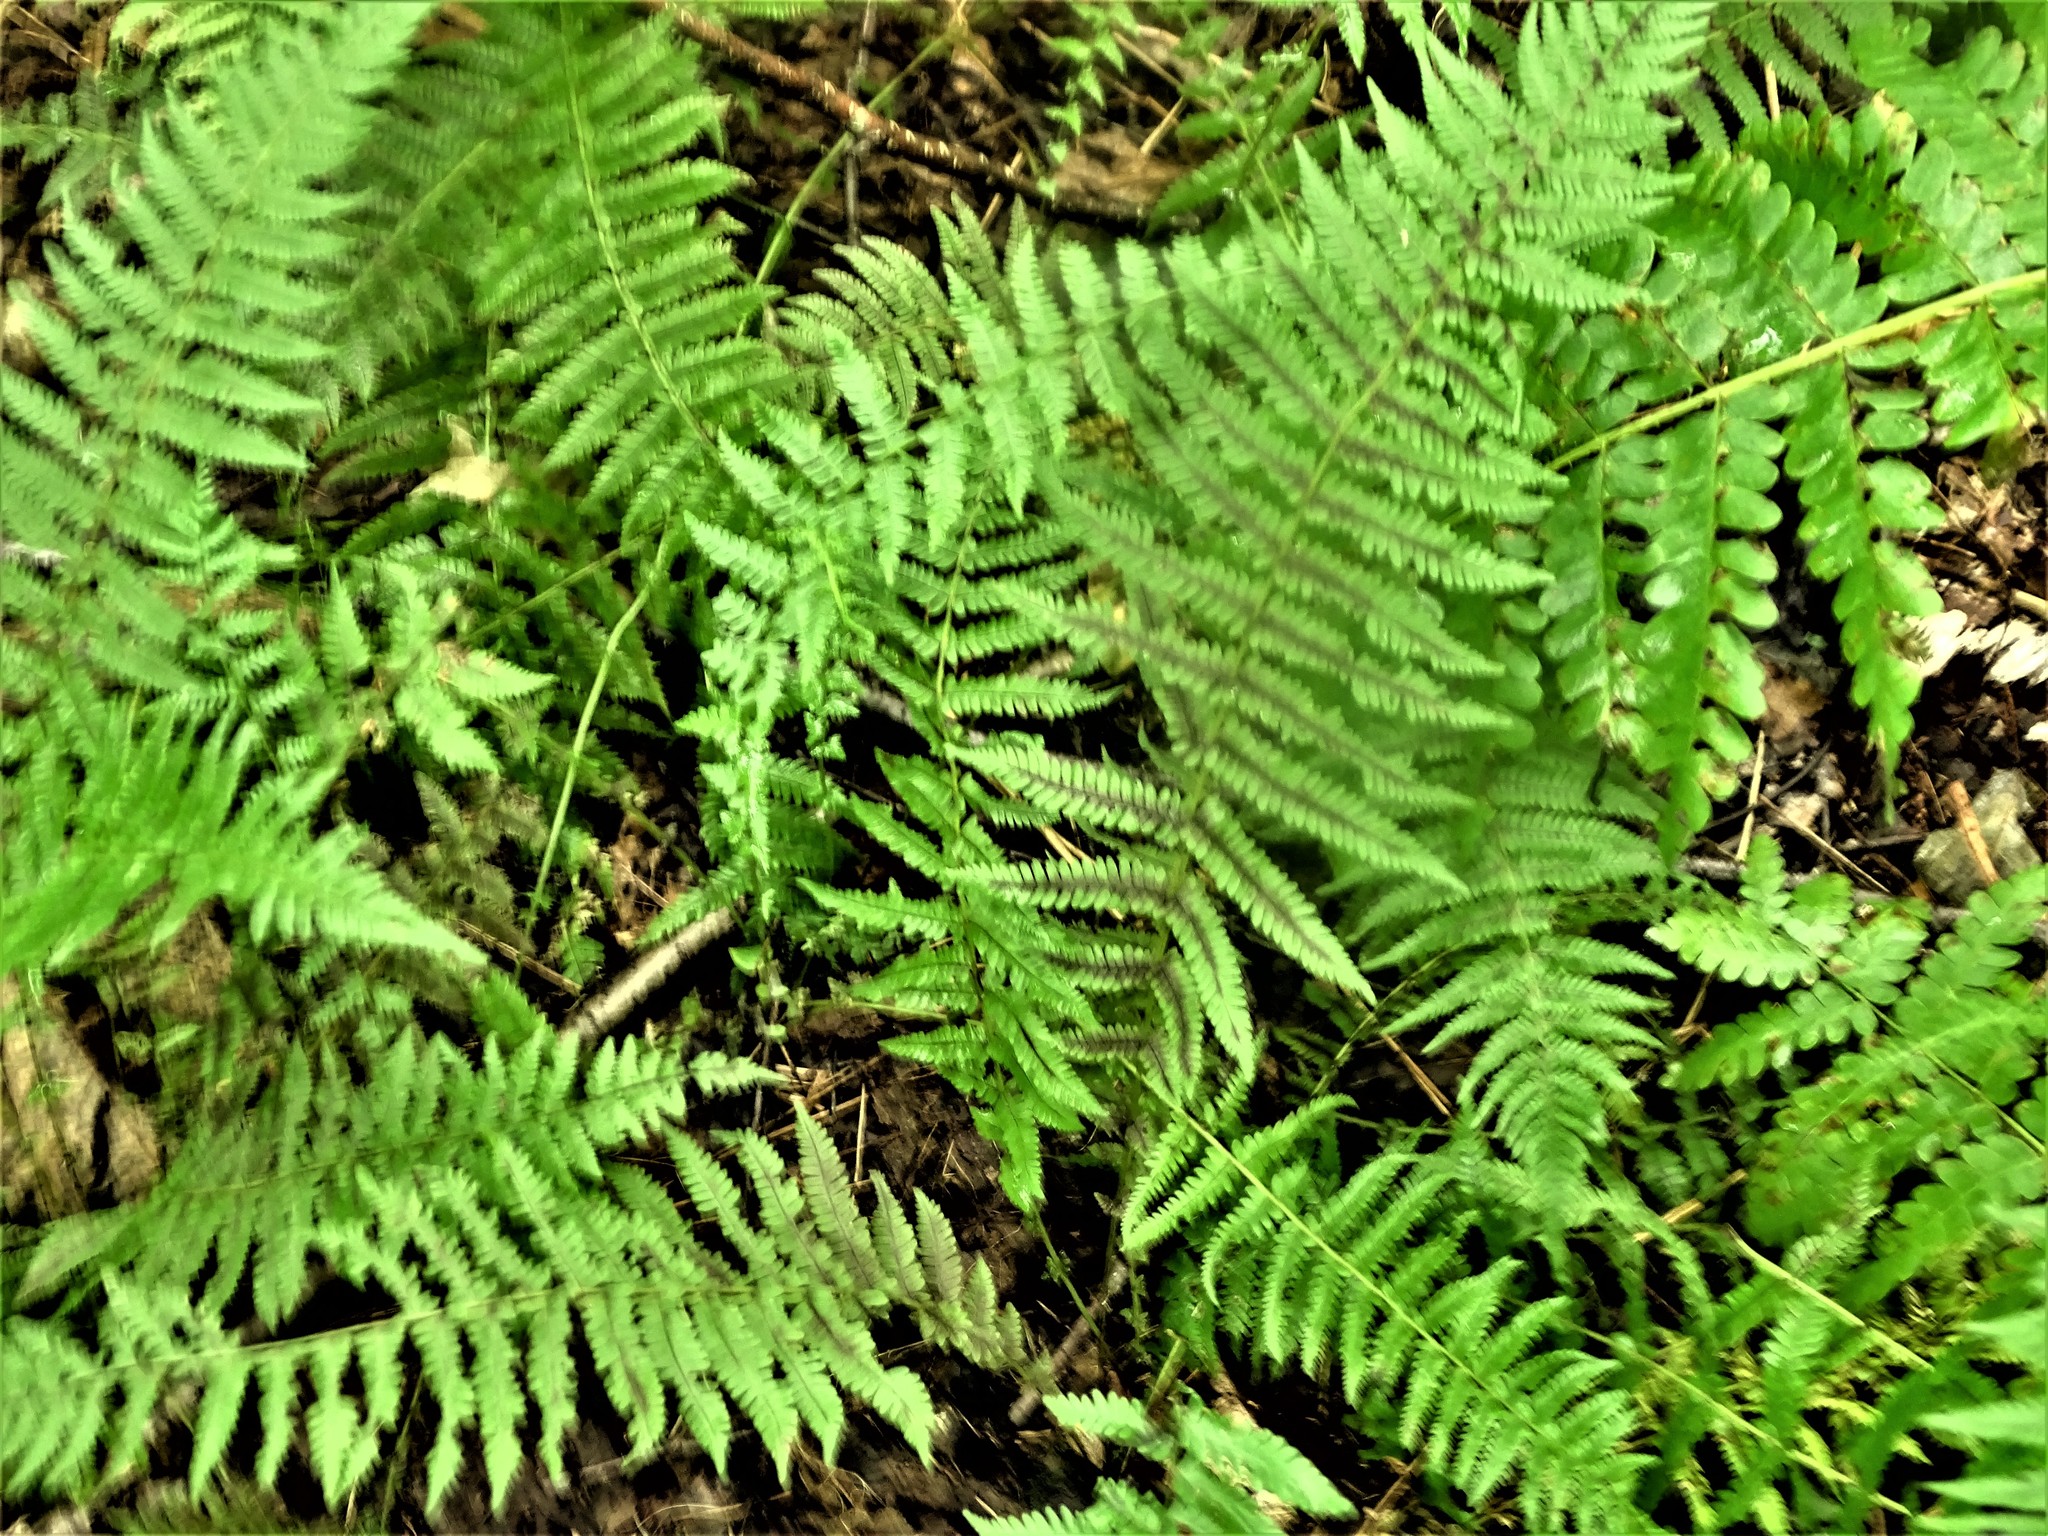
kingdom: Plantae
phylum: Tracheophyta
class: Polypodiopsida
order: Polypodiales
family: Thelypteridaceae
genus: Amauropelta
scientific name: Amauropelta noveboracensis
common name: New york fern
